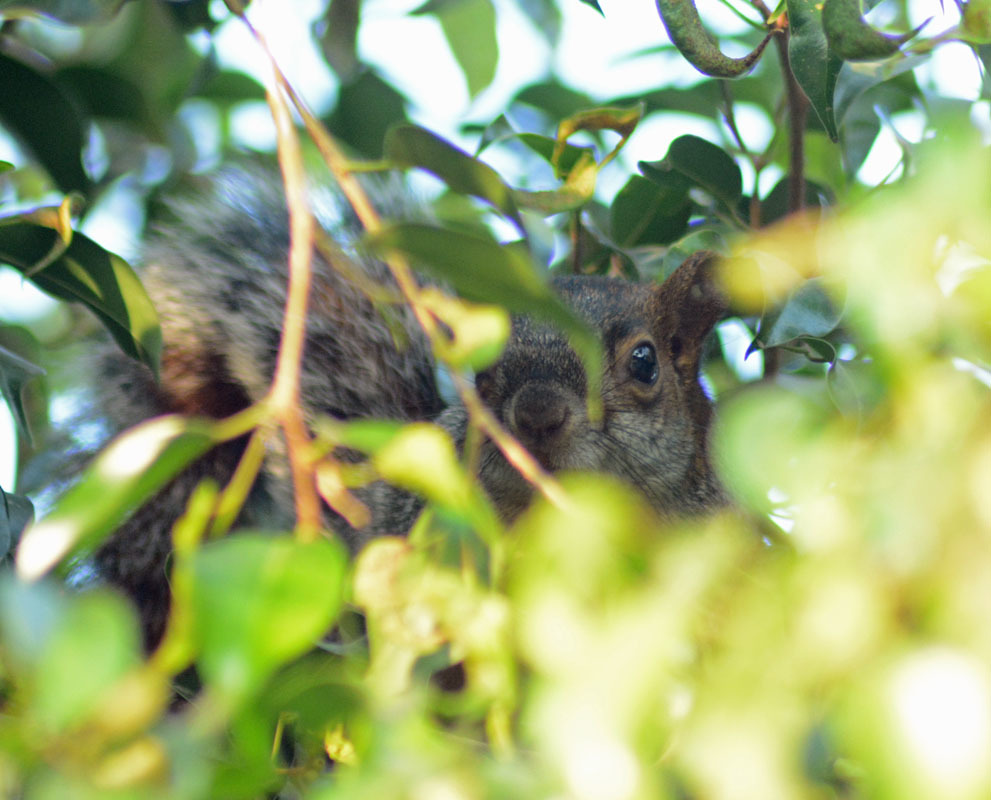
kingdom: Animalia
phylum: Chordata
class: Mammalia
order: Rodentia
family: Sciuridae
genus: Sciurus
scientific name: Sciurus aureogaster
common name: Red-bellied squirrel
